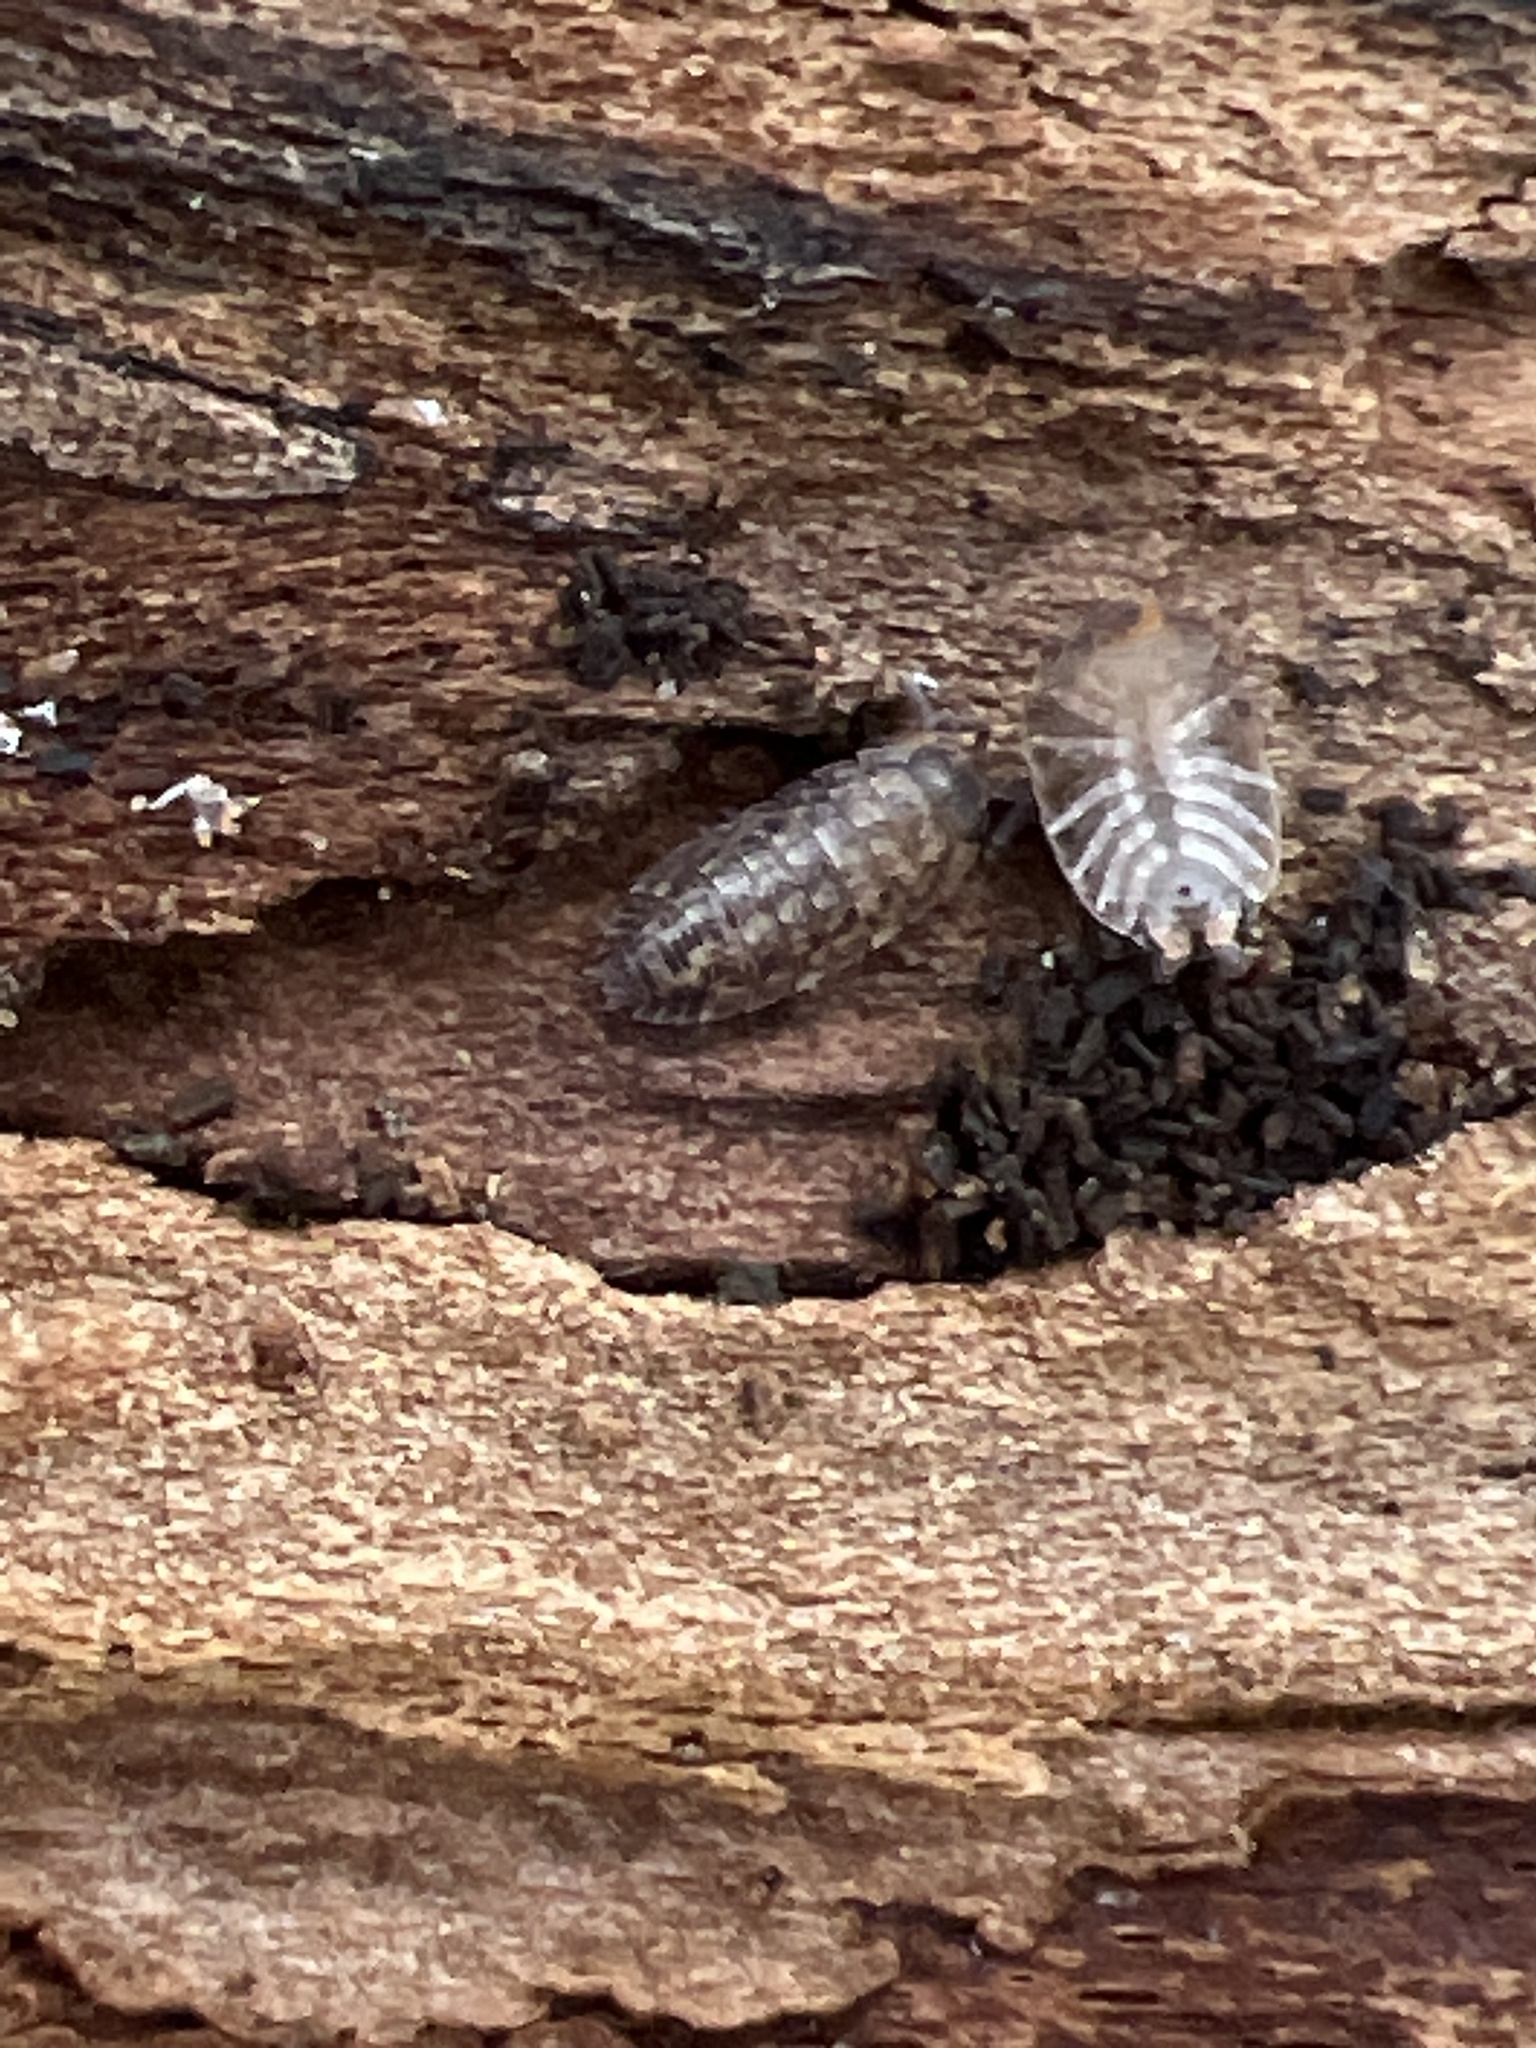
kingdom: Animalia
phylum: Arthropoda
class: Malacostraca
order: Isopoda
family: Oniscidae
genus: Oniscus
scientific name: Oniscus asellus
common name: Common shiny woodlouse
